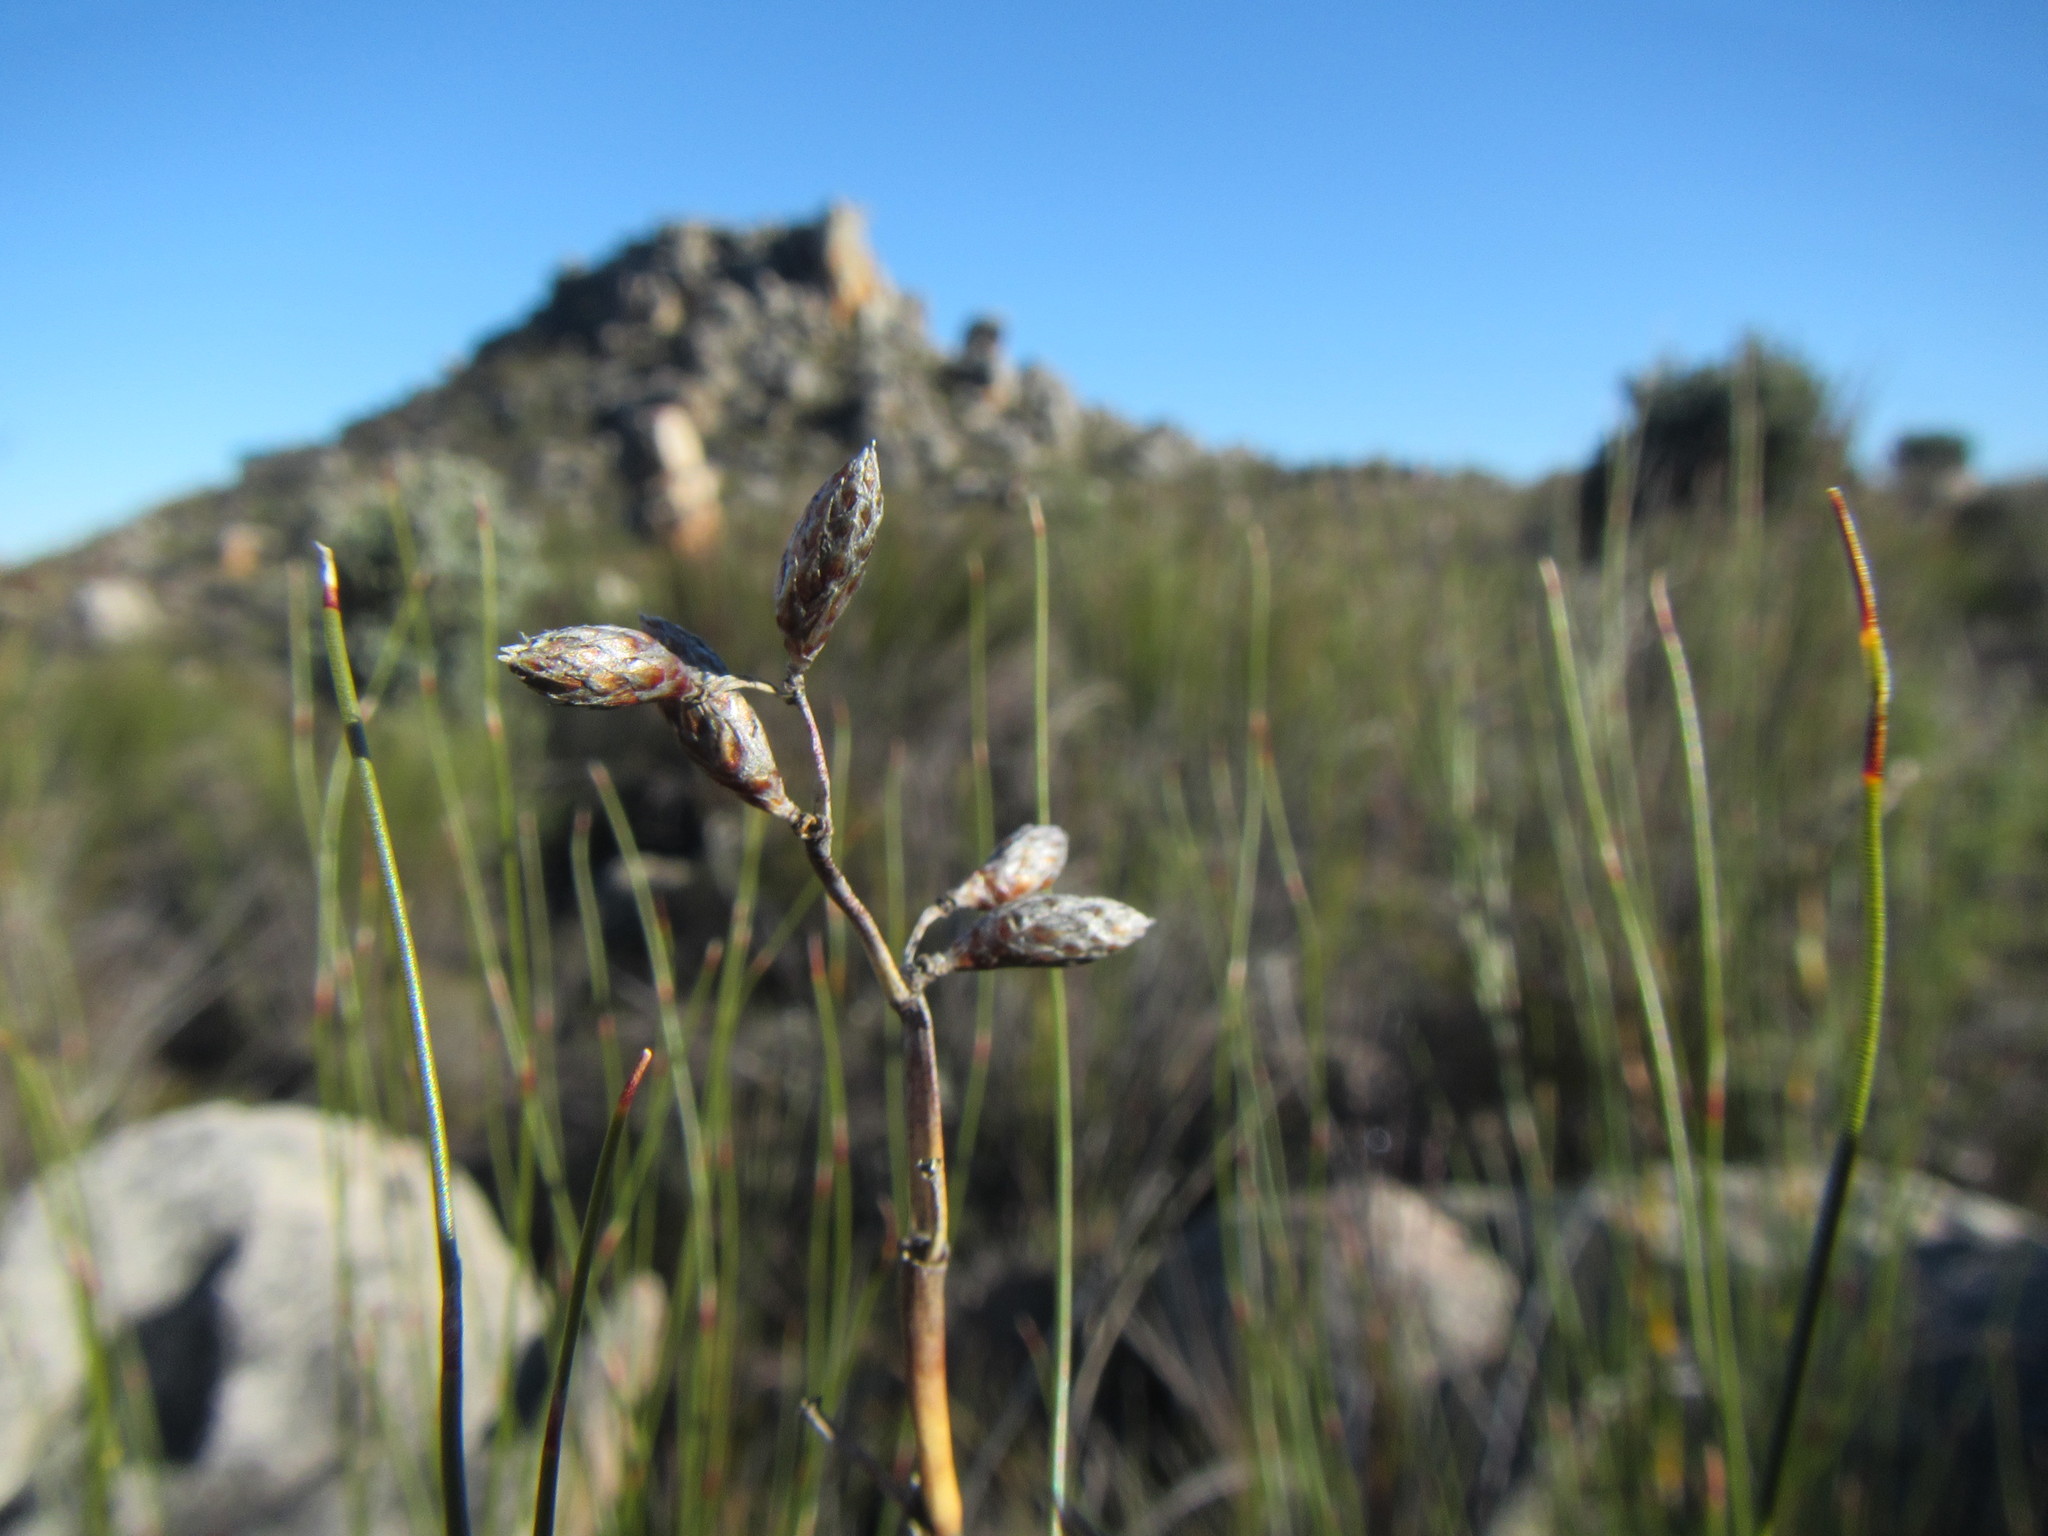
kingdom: Plantae
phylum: Tracheophyta
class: Liliopsida
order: Poales
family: Restionaceae
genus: Cannomois
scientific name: Cannomois robusta
